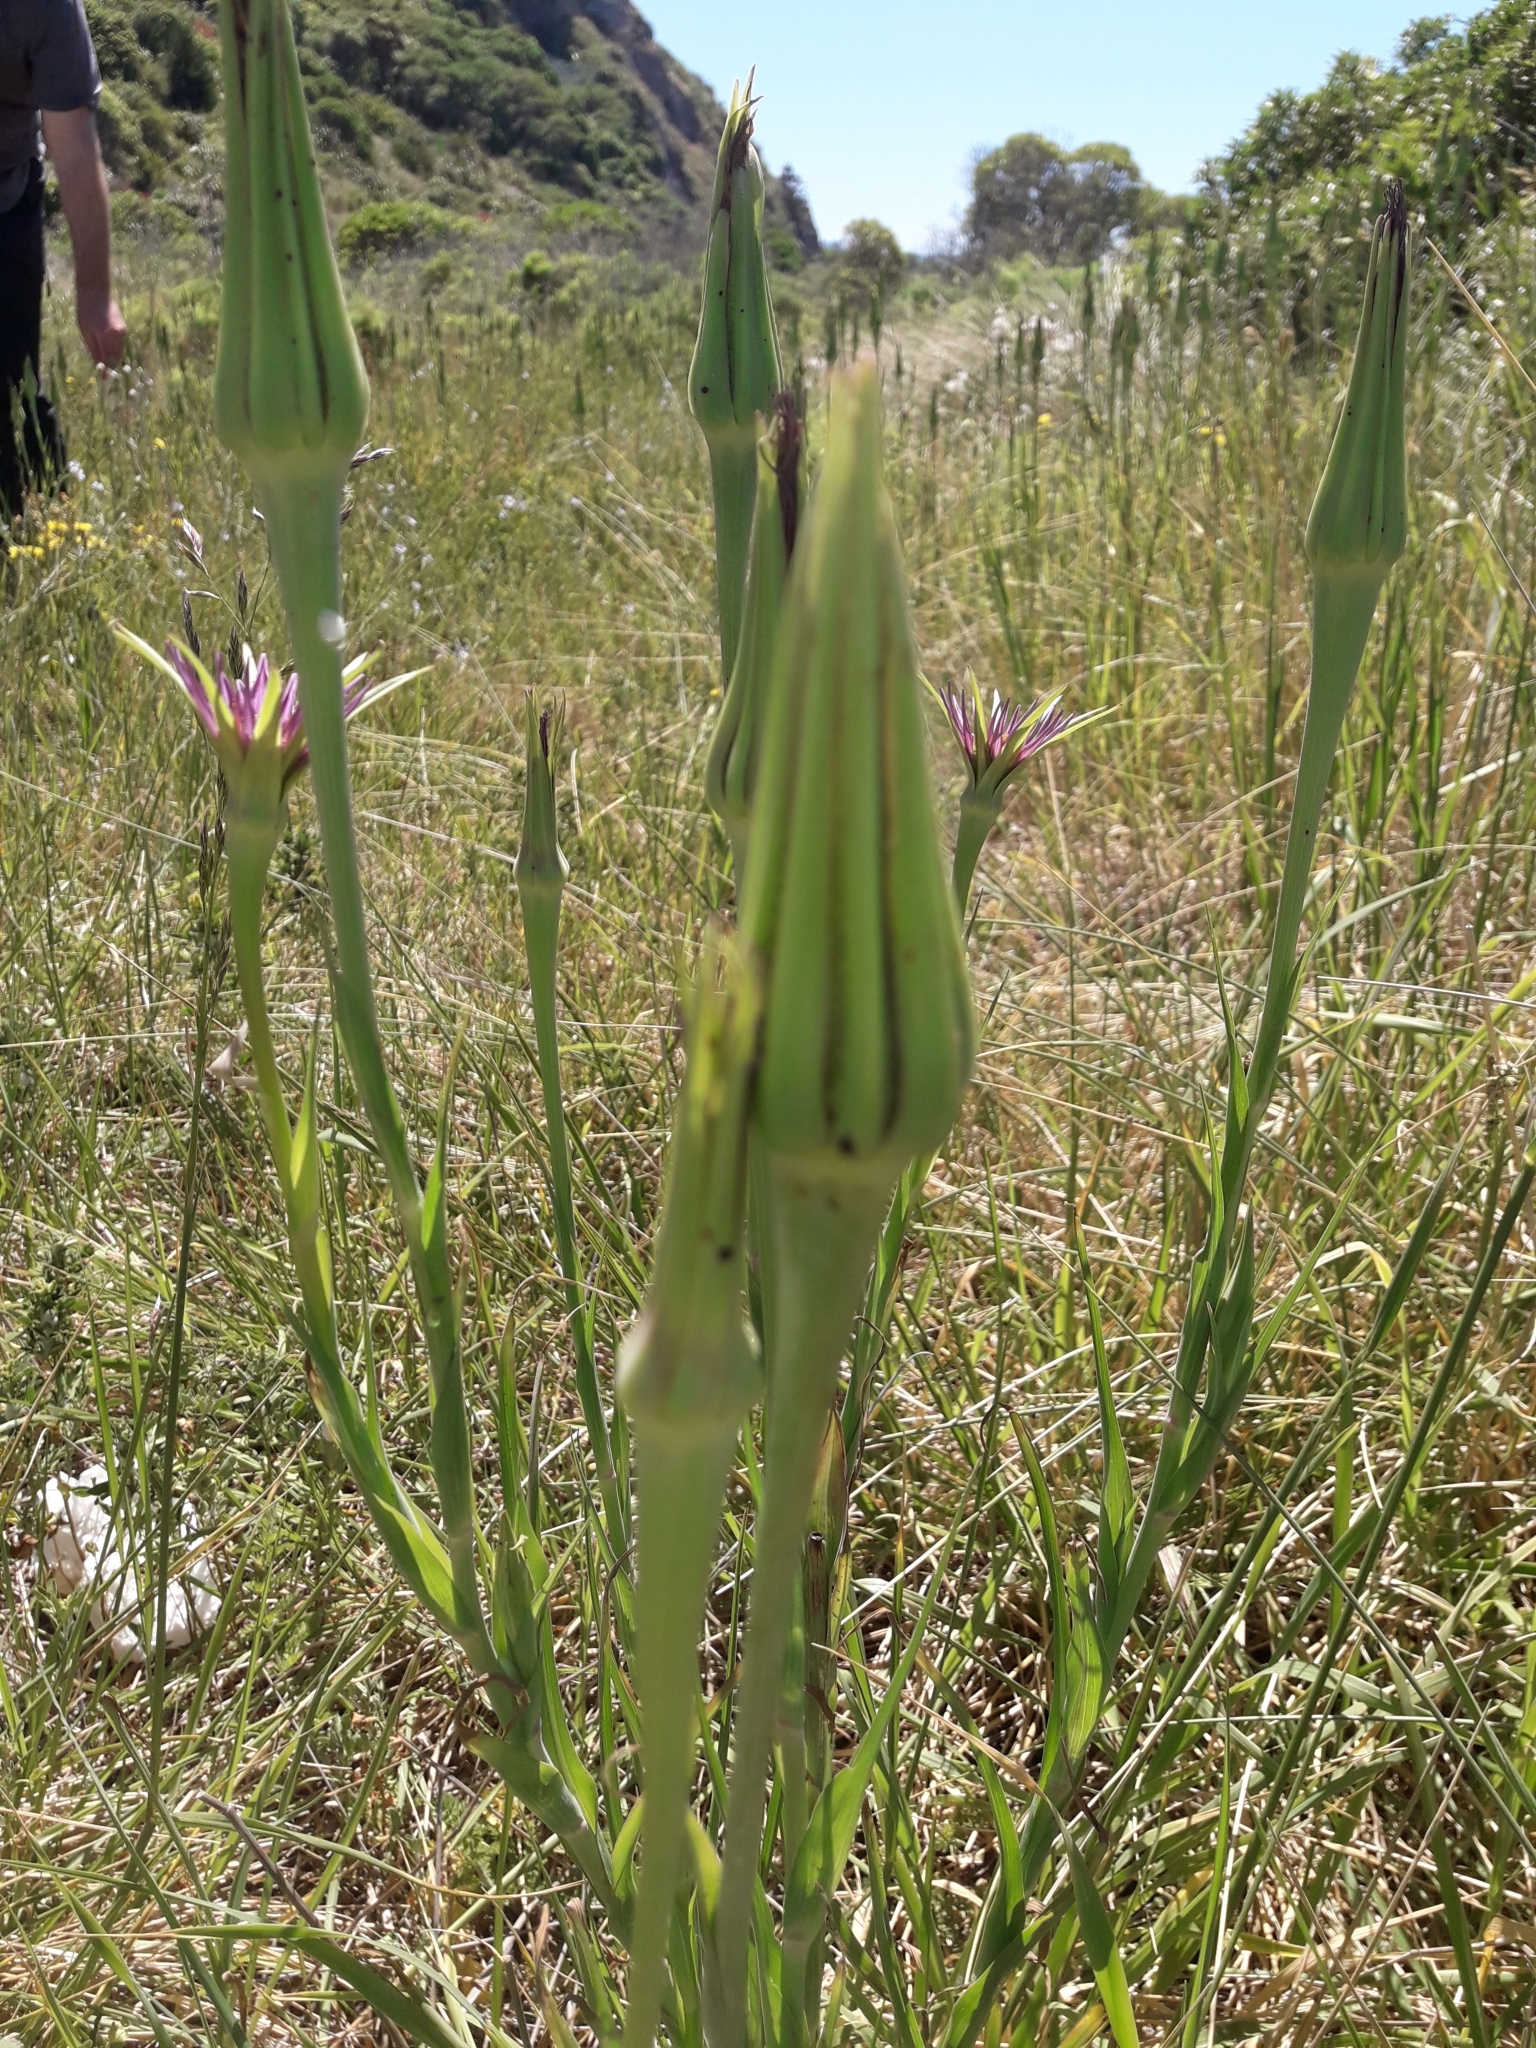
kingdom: Plantae
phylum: Tracheophyta
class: Magnoliopsida
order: Asterales
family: Asteraceae
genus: Tragopogon
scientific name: Tragopogon porrifolius
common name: Salsify
